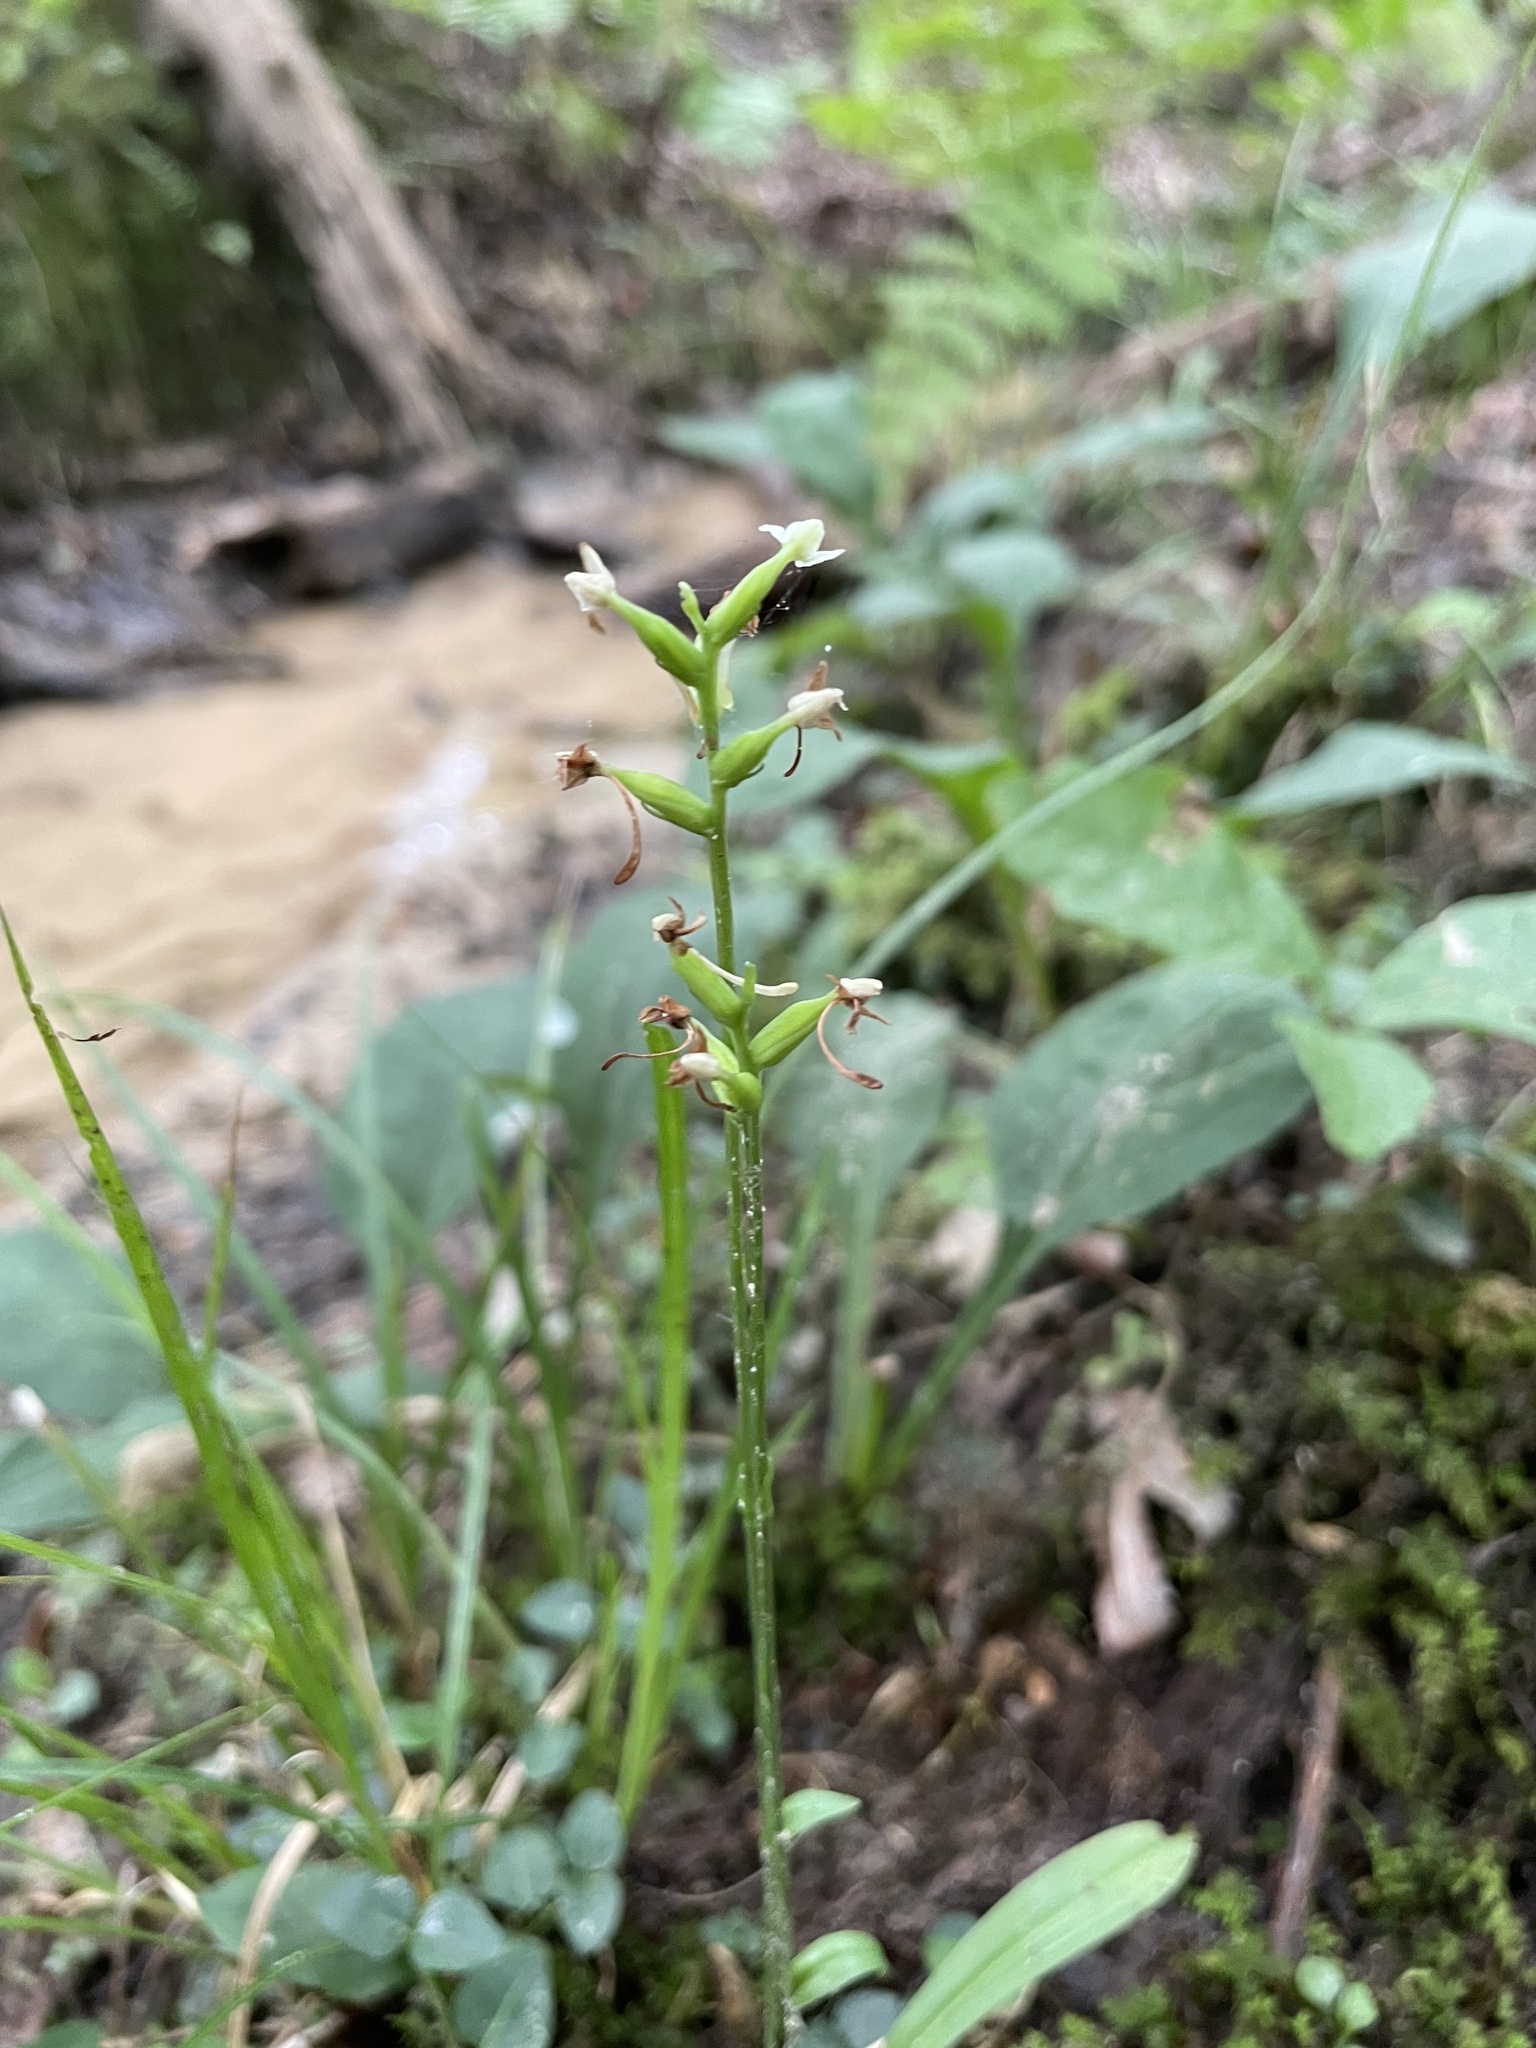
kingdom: Plantae
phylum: Tracheophyta
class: Liliopsida
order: Asparagales
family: Orchidaceae
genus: Platanthera
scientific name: Platanthera clavellata
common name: Club-spur orchid
